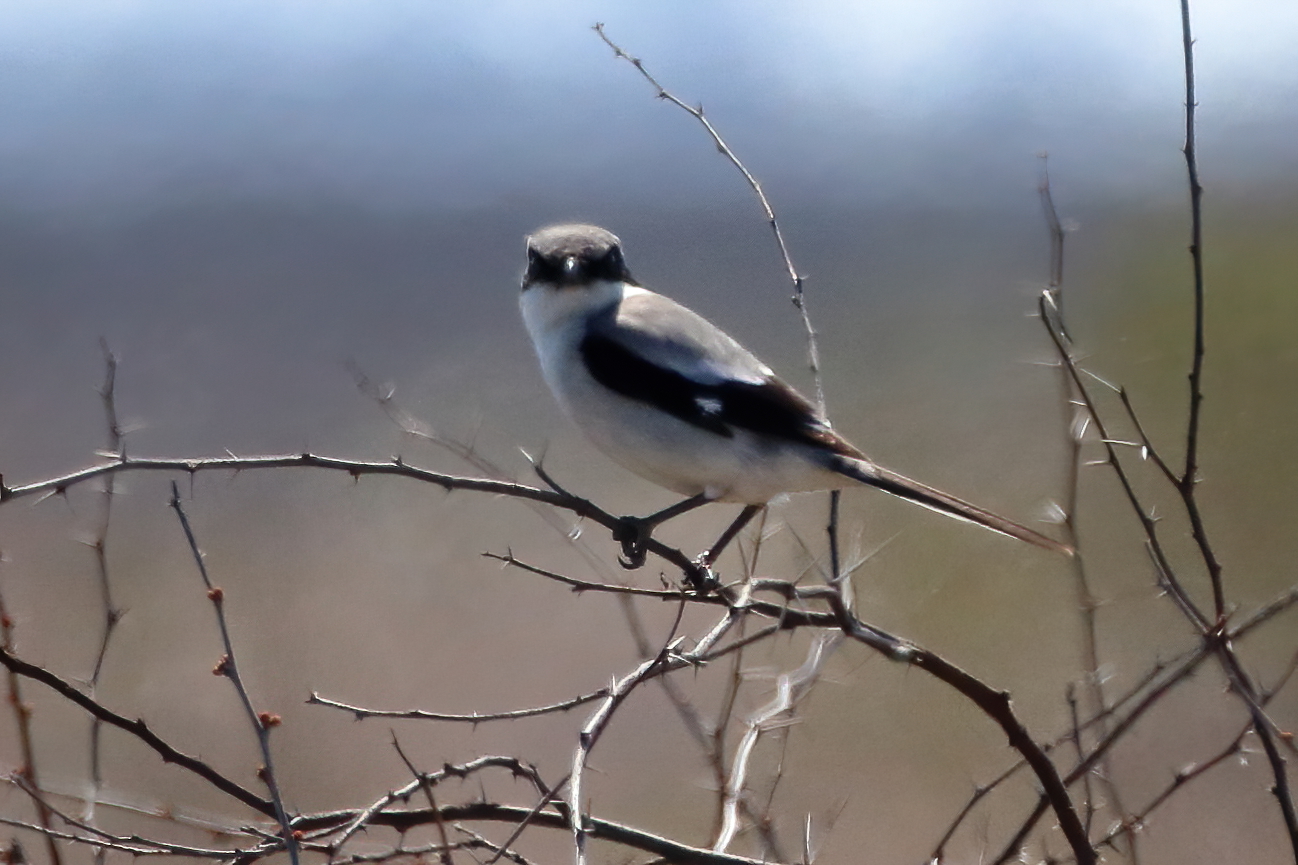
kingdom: Animalia
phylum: Chordata
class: Aves
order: Passeriformes
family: Laniidae
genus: Lanius
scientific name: Lanius ludovicianus
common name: Loggerhead shrike
